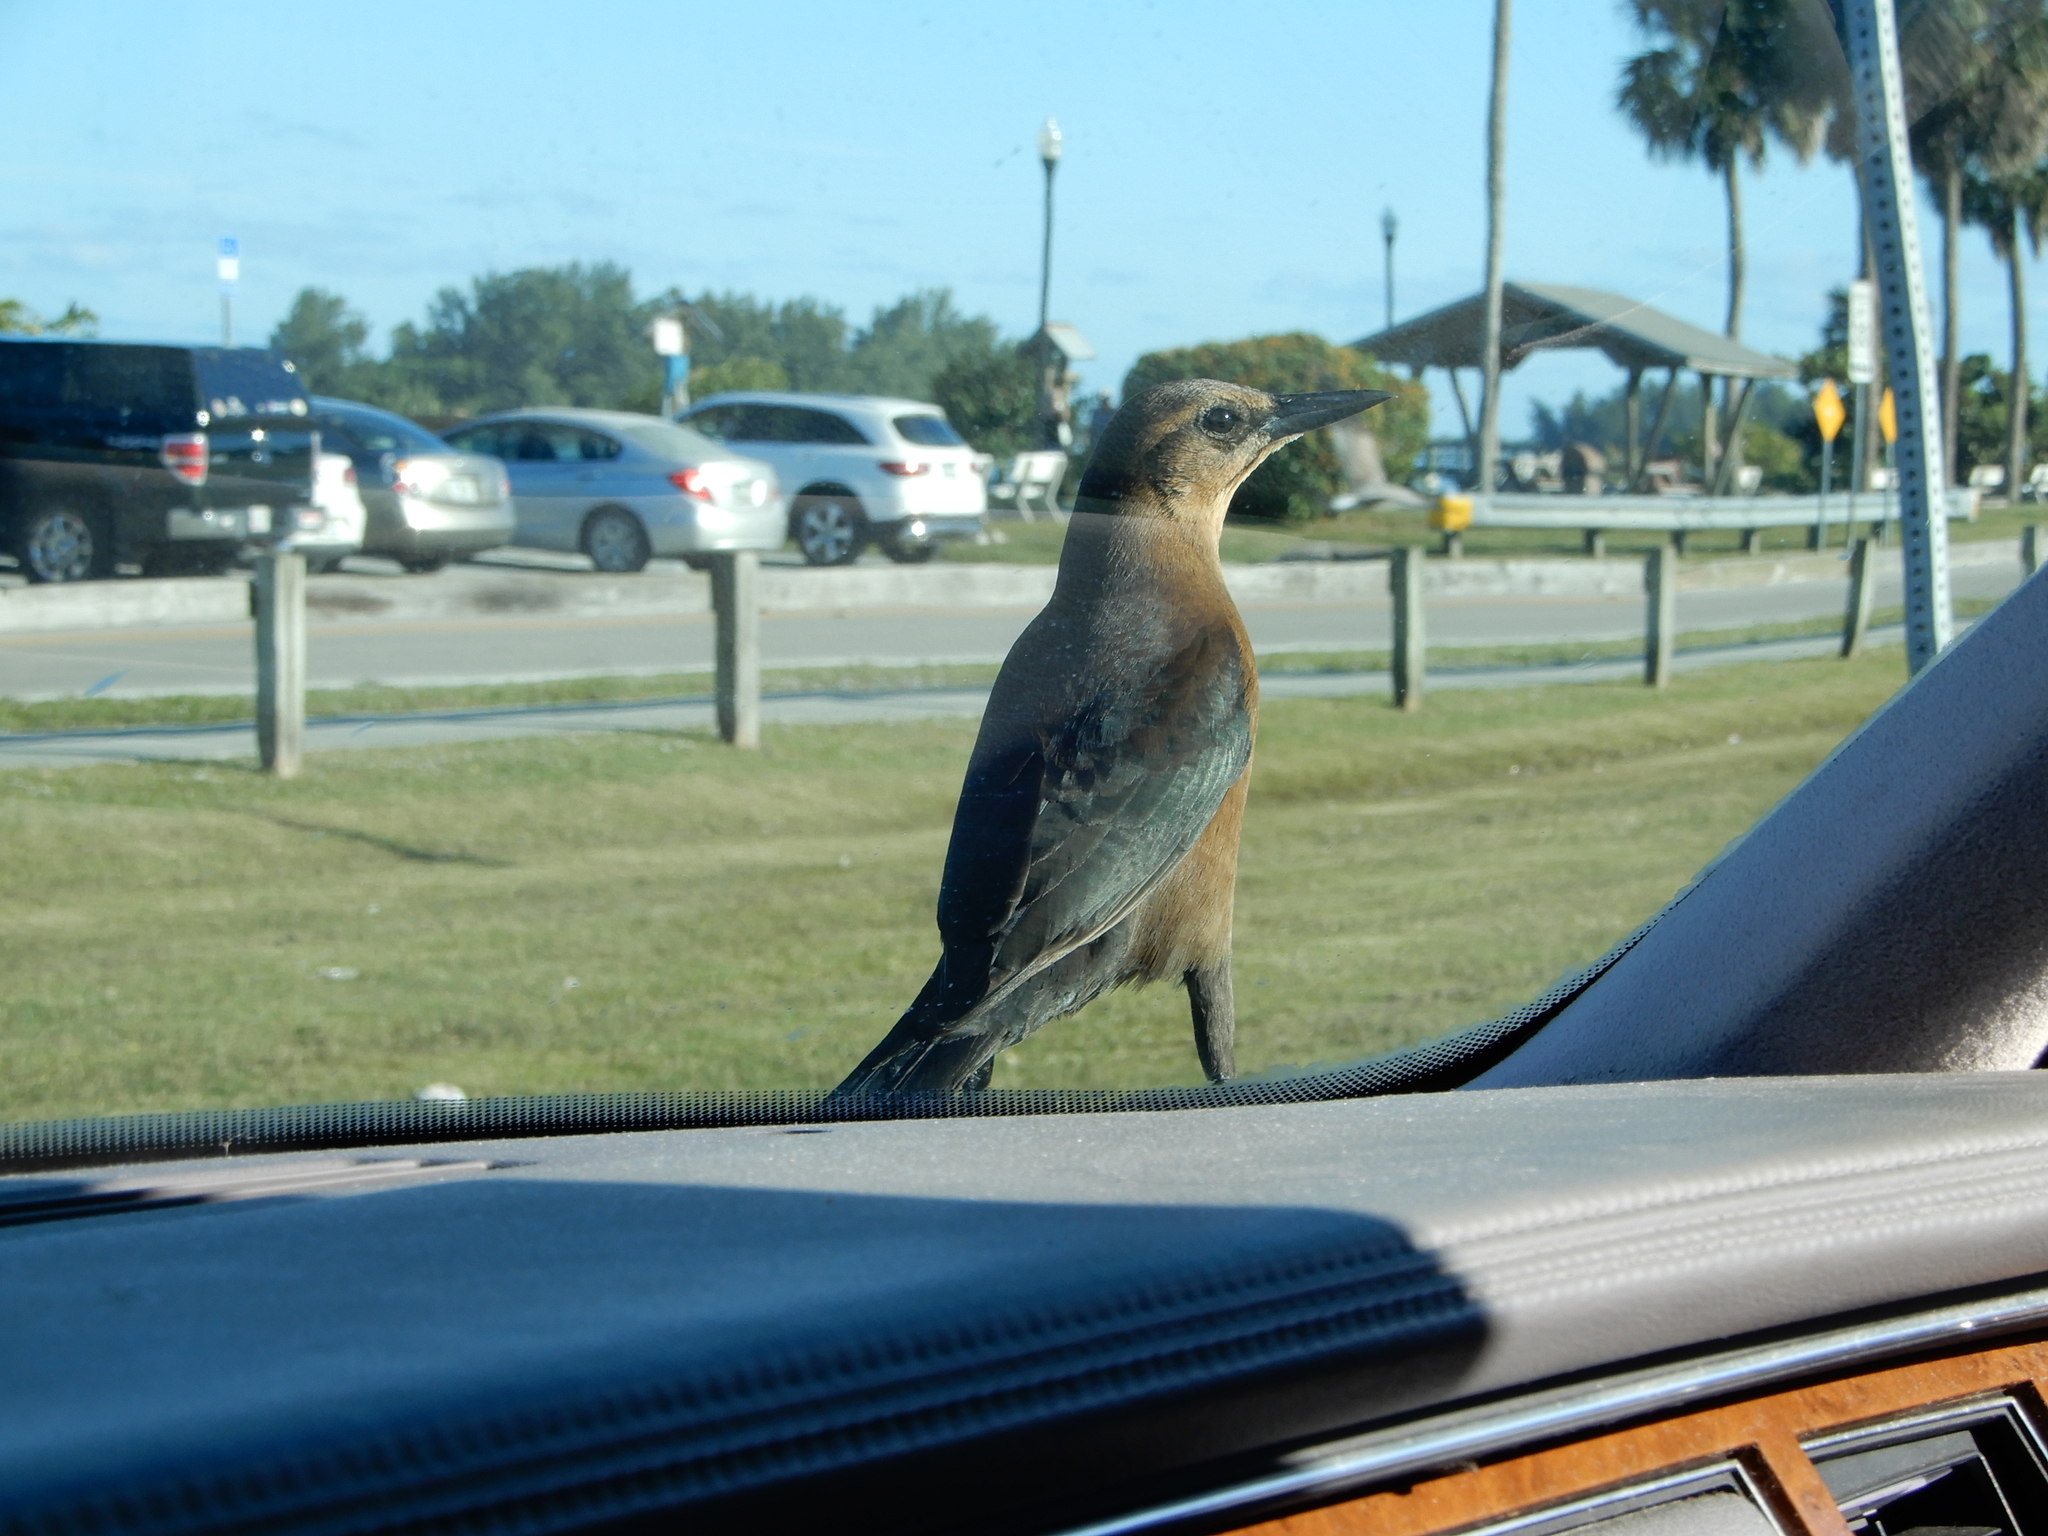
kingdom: Animalia
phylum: Chordata
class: Aves
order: Passeriformes
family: Icteridae
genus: Quiscalus
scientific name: Quiscalus major
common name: Boat-tailed grackle
